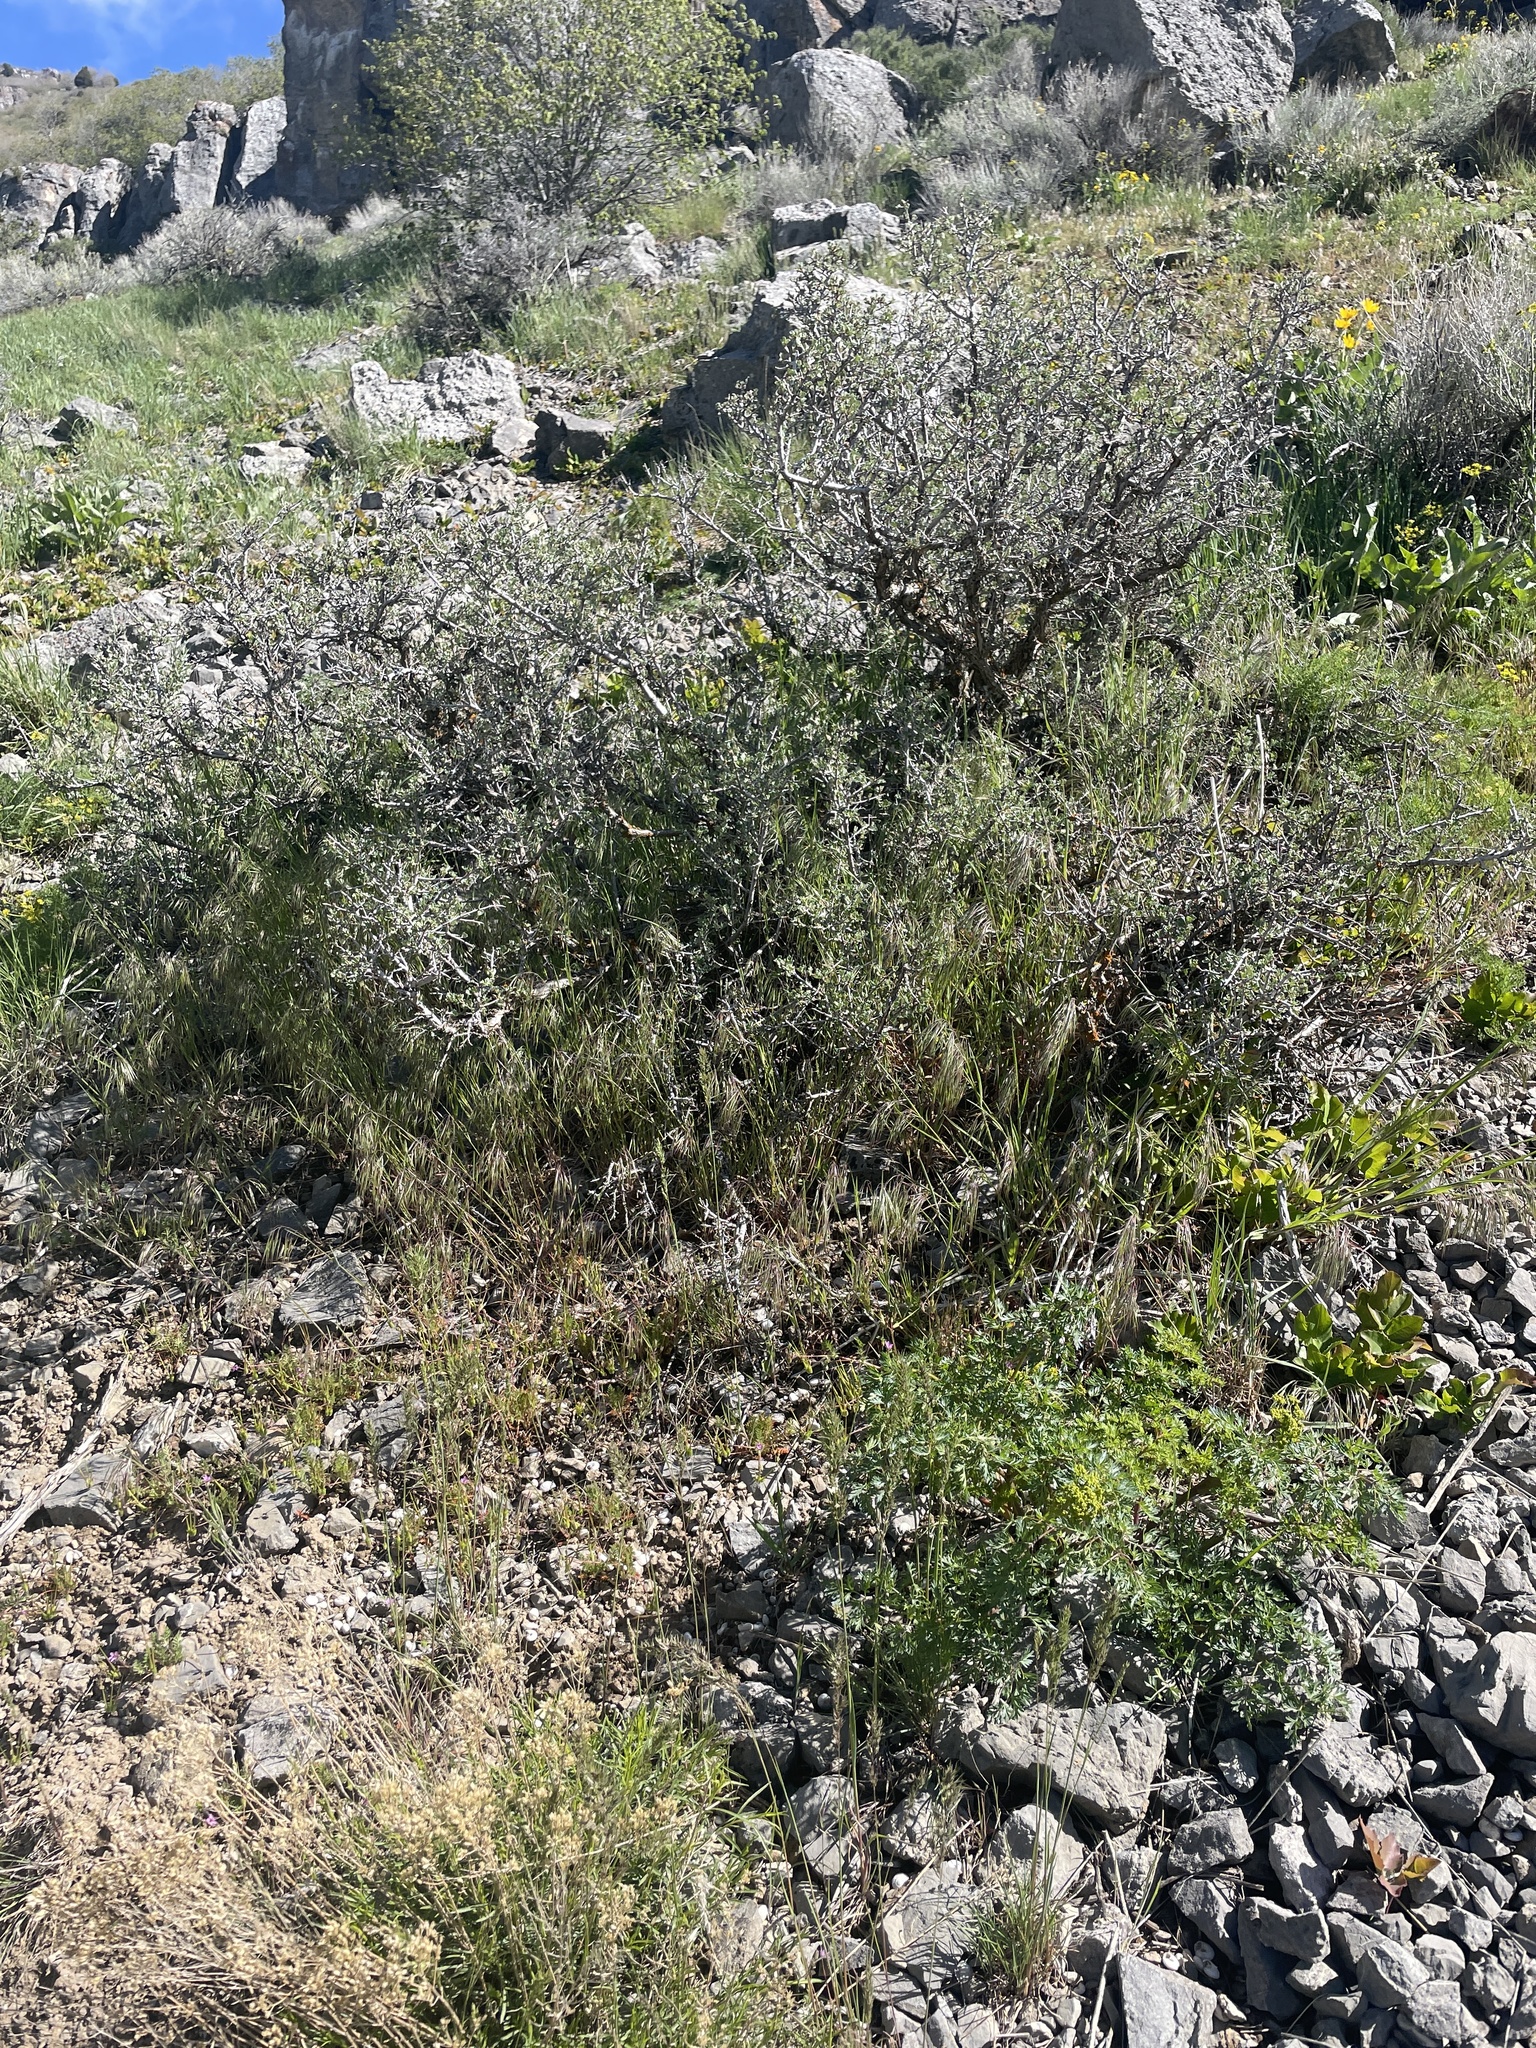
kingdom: Plantae
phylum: Tracheophyta
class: Liliopsida
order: Poales
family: Poaceae
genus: Bromus
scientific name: Bromus tectorum
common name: Cheatgrass
